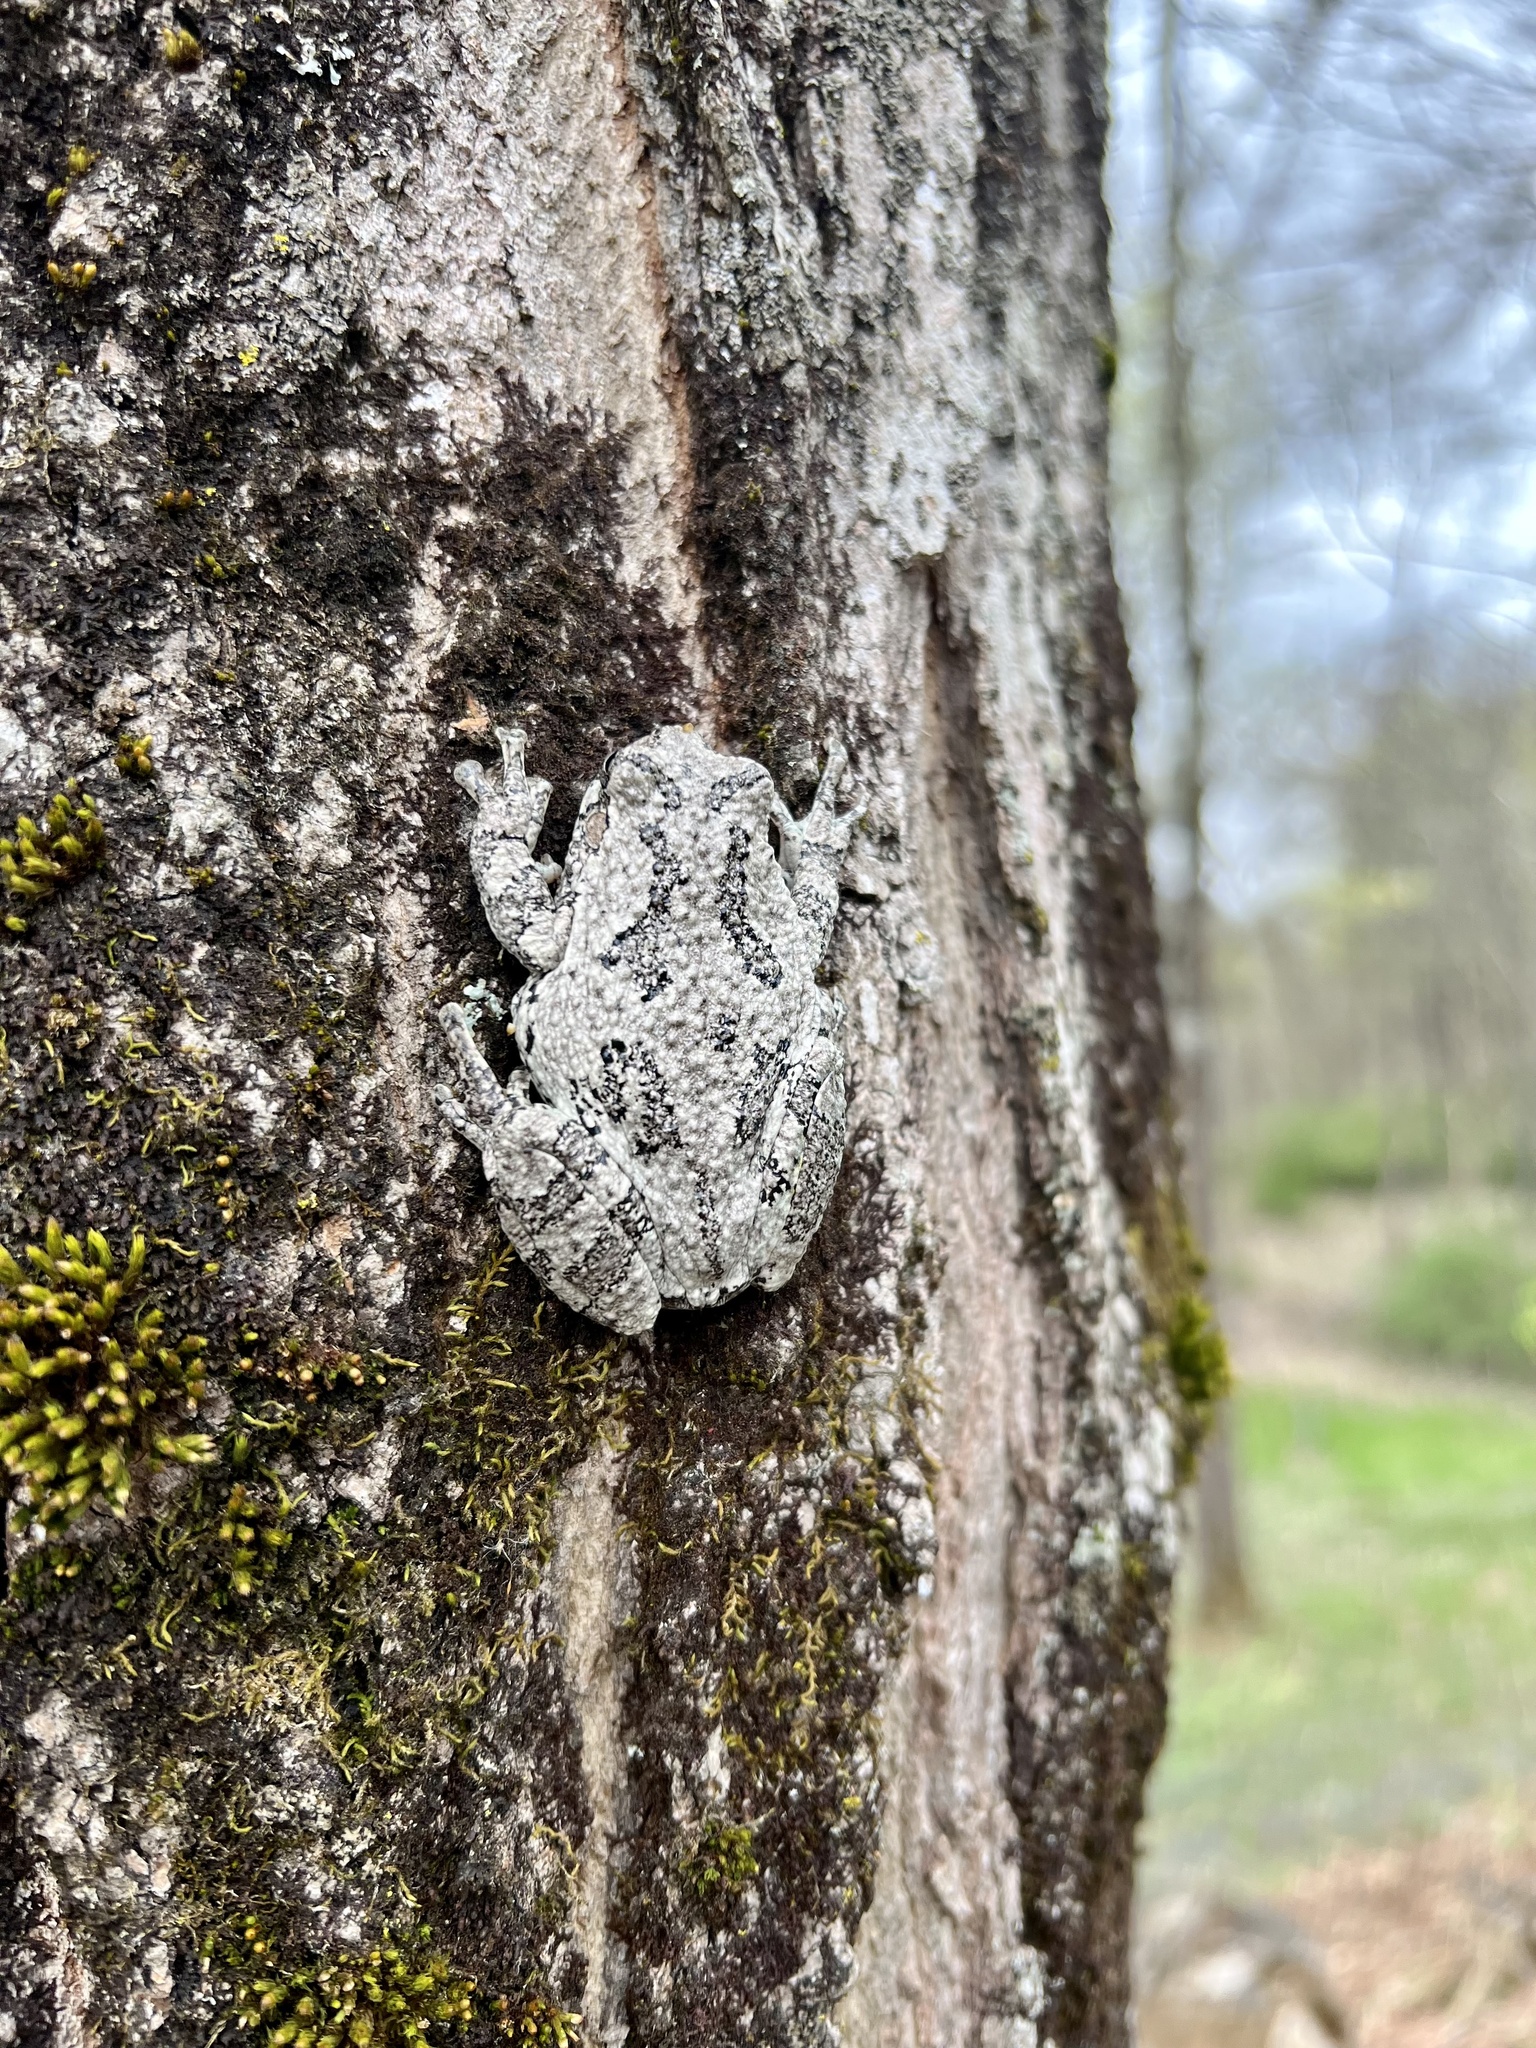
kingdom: Animalia
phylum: Chordata
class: Amphibia
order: Anura
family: Hylidae
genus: Dryophytes
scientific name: Dryophytes versicolor
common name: Gray treefrog
